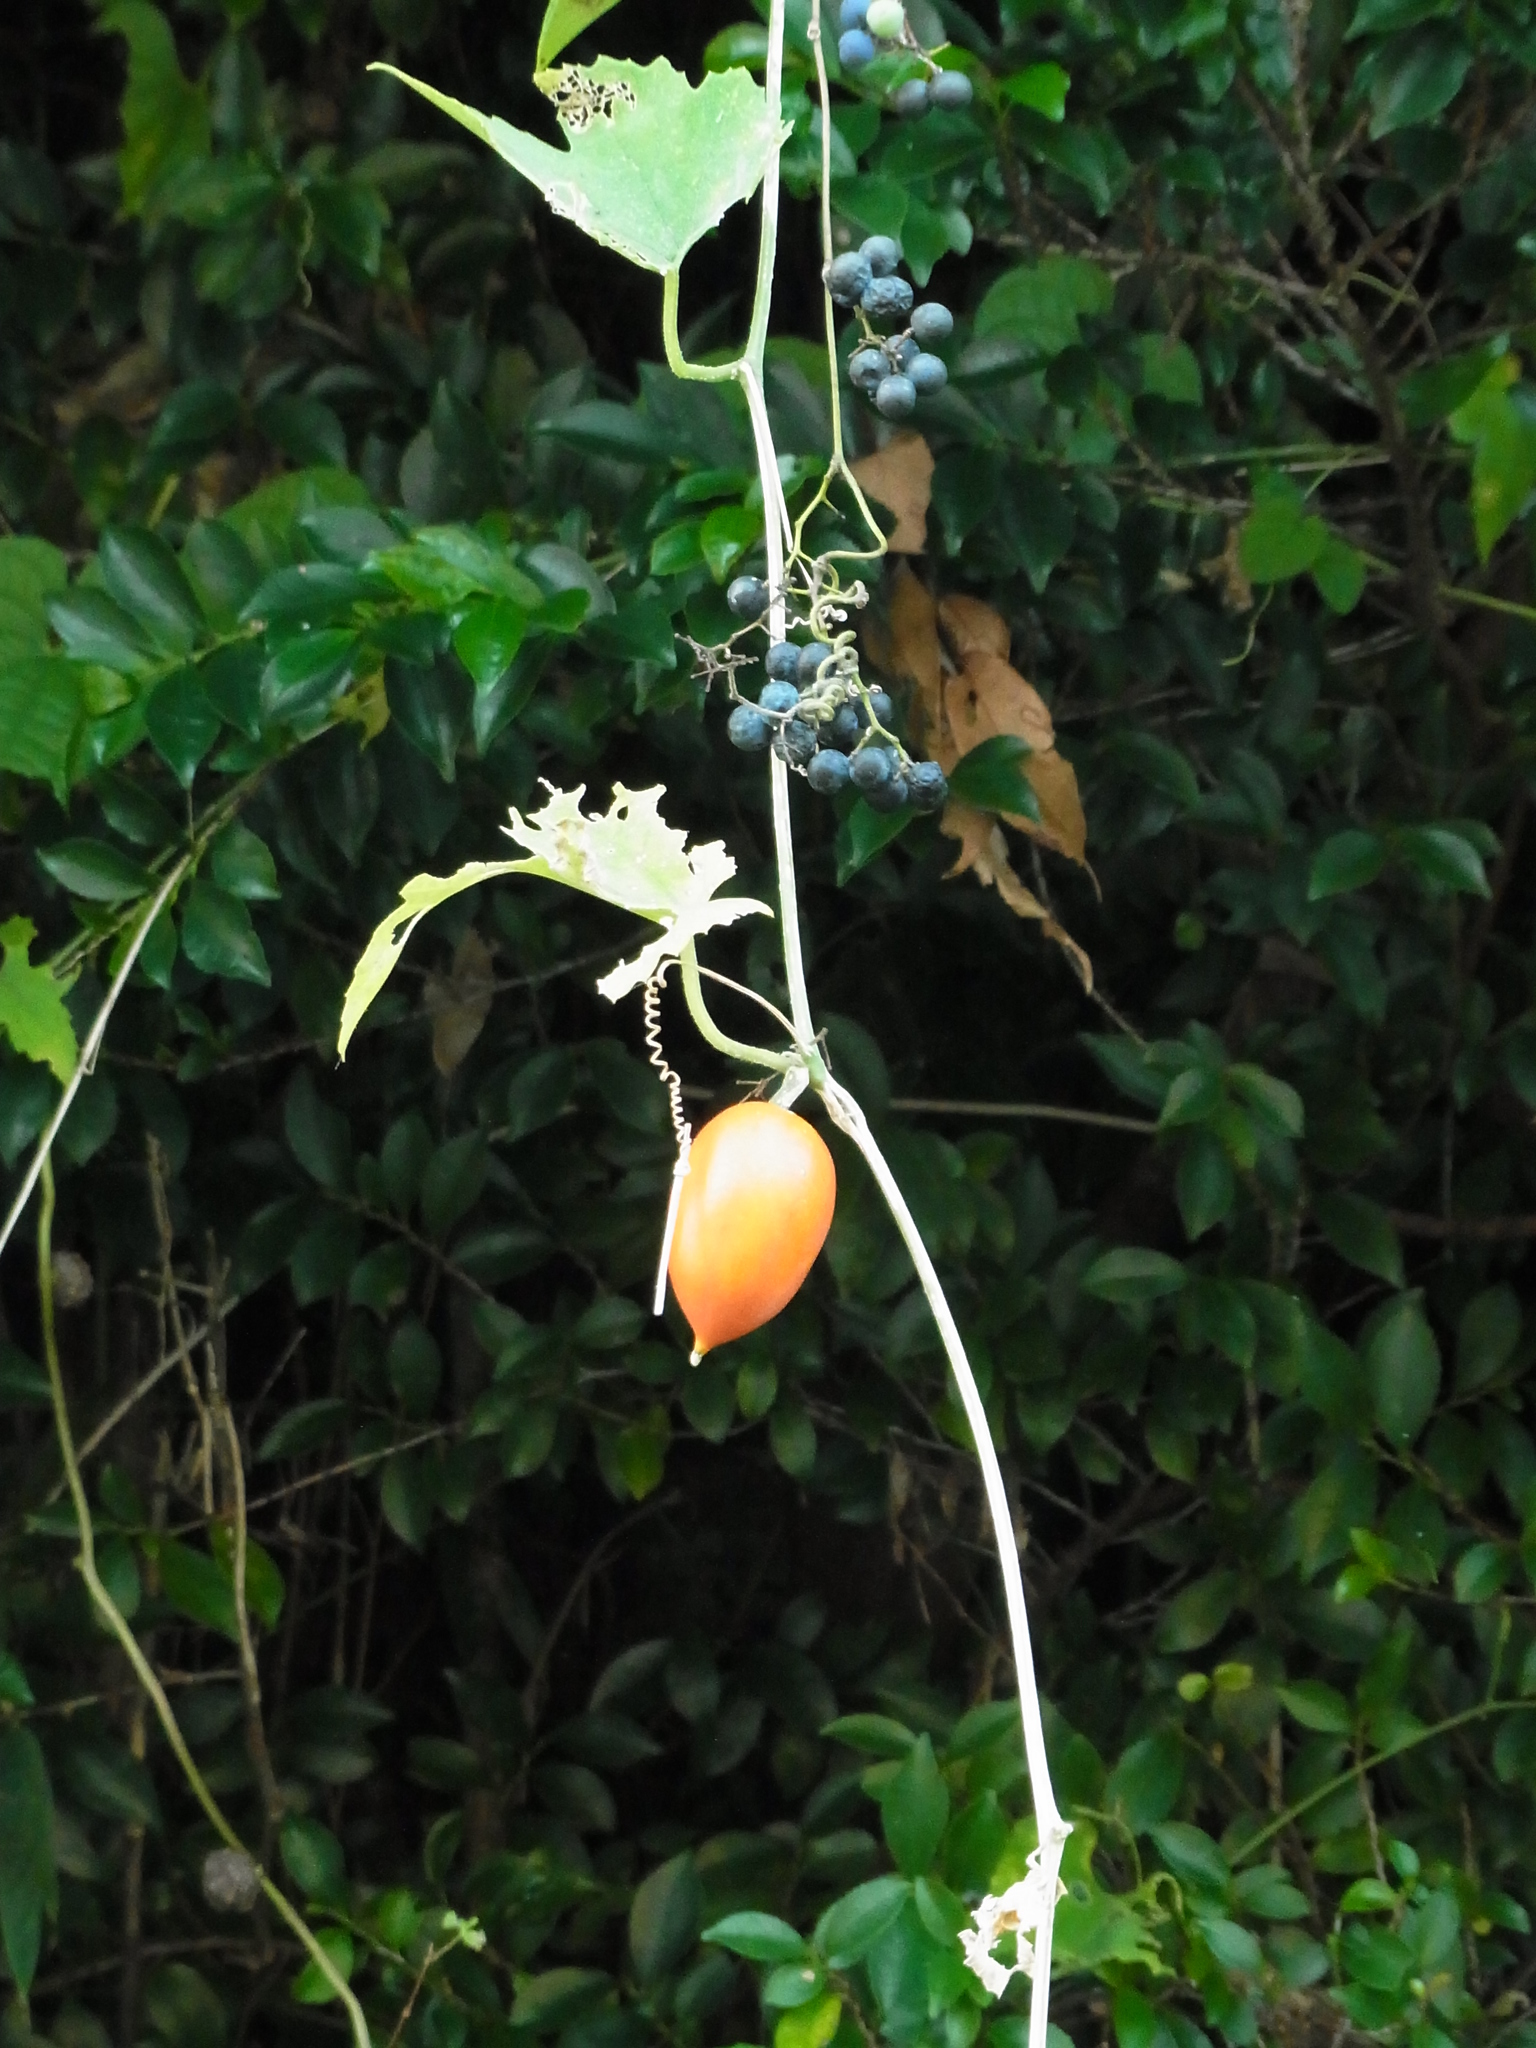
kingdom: Plantae
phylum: Tracheophyta
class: Magnoliopsida
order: Cucurbitales
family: Cucurbitaceae
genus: Trichosanthes
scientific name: Trichosanthes cucumeroides
